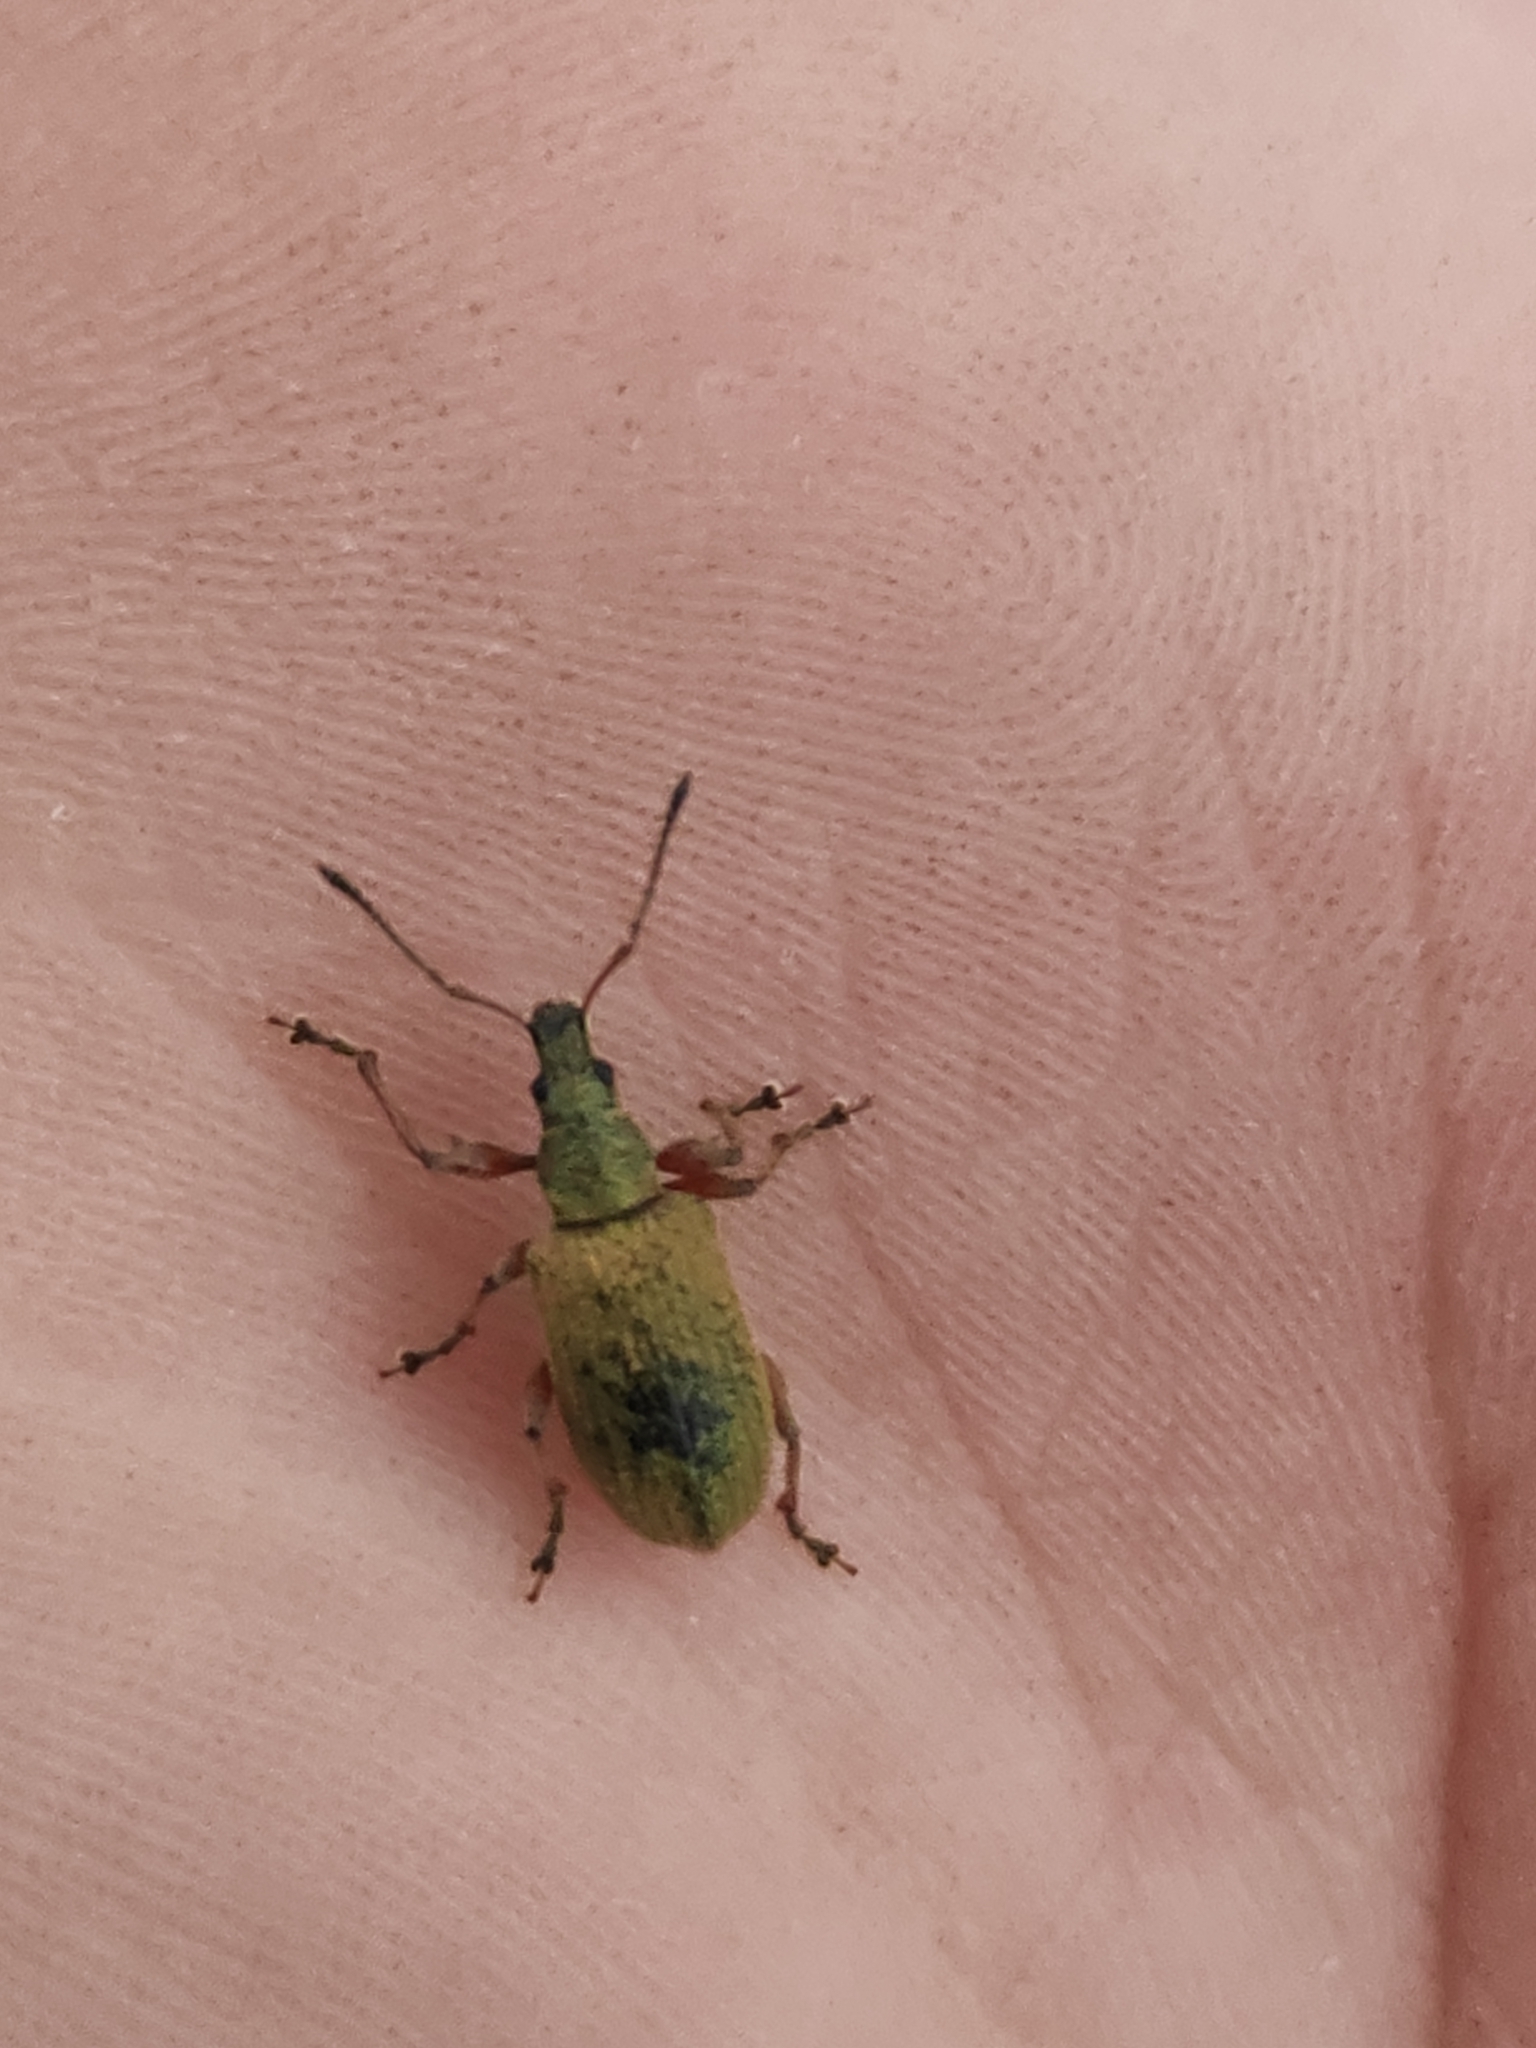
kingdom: Animalia
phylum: Arthropoda
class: Insecta
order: Coleoptera
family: Curculionidae
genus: Phyllobius
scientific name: Phyllobius pomaceus
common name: Green nettle weevil
